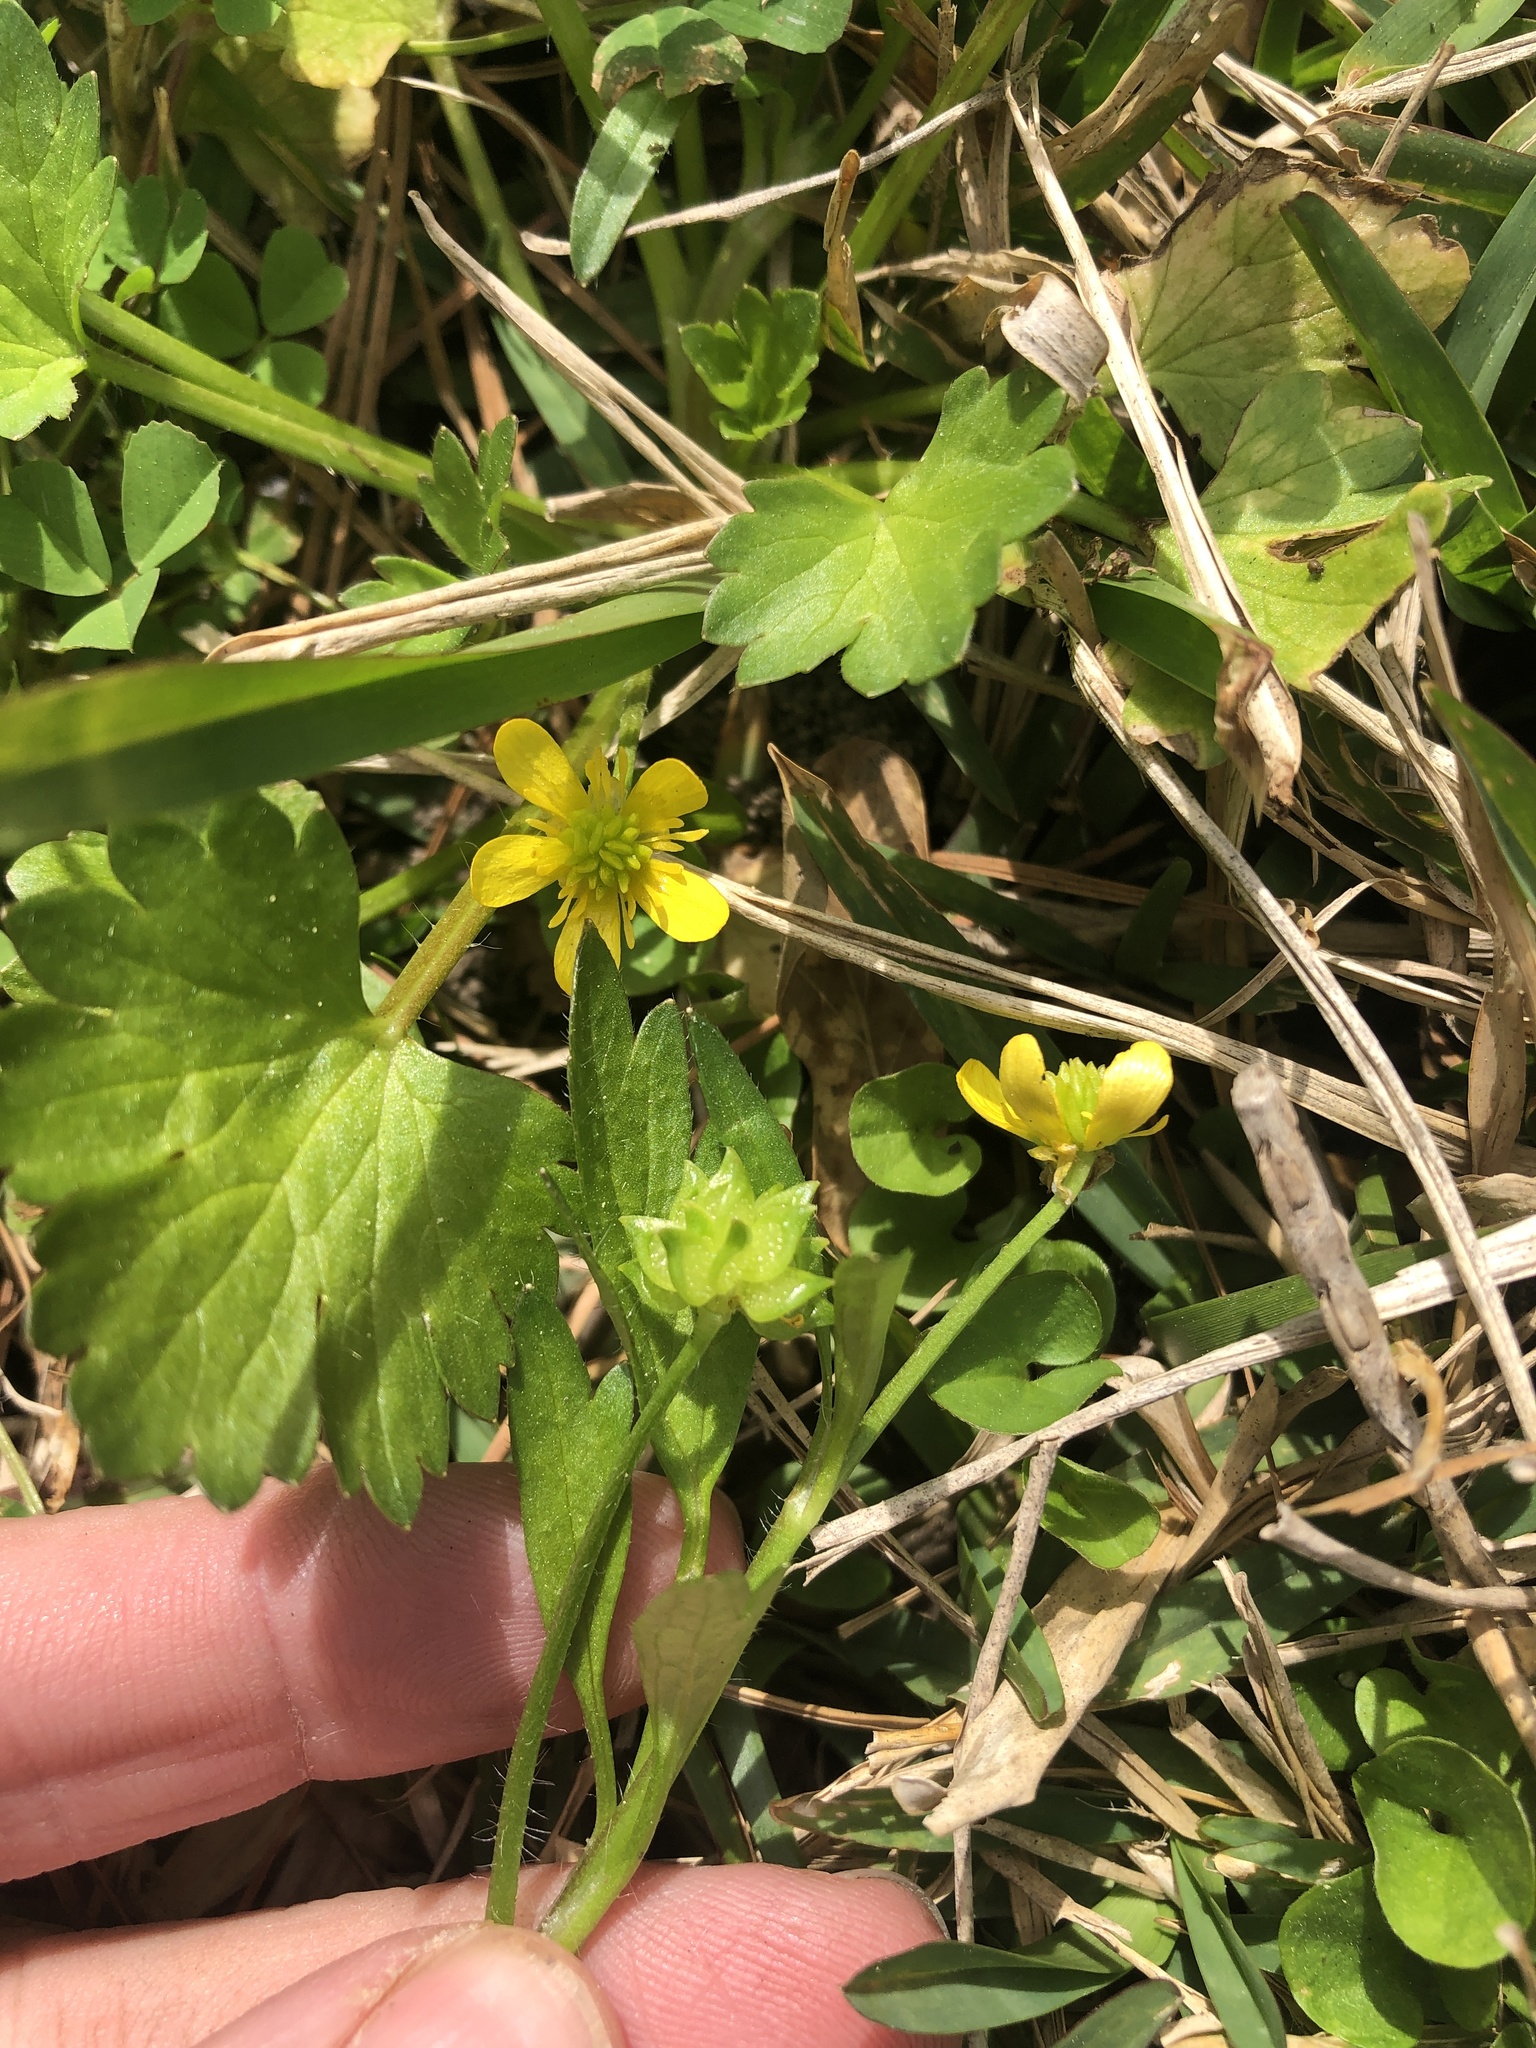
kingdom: Plantae
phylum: Tracheophyta
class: Magnoliopsida
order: Ranunculales
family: Ranunculaceae
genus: Ranunculus
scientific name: Ranunculus muricatus
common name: Rough-fruited buttercup
